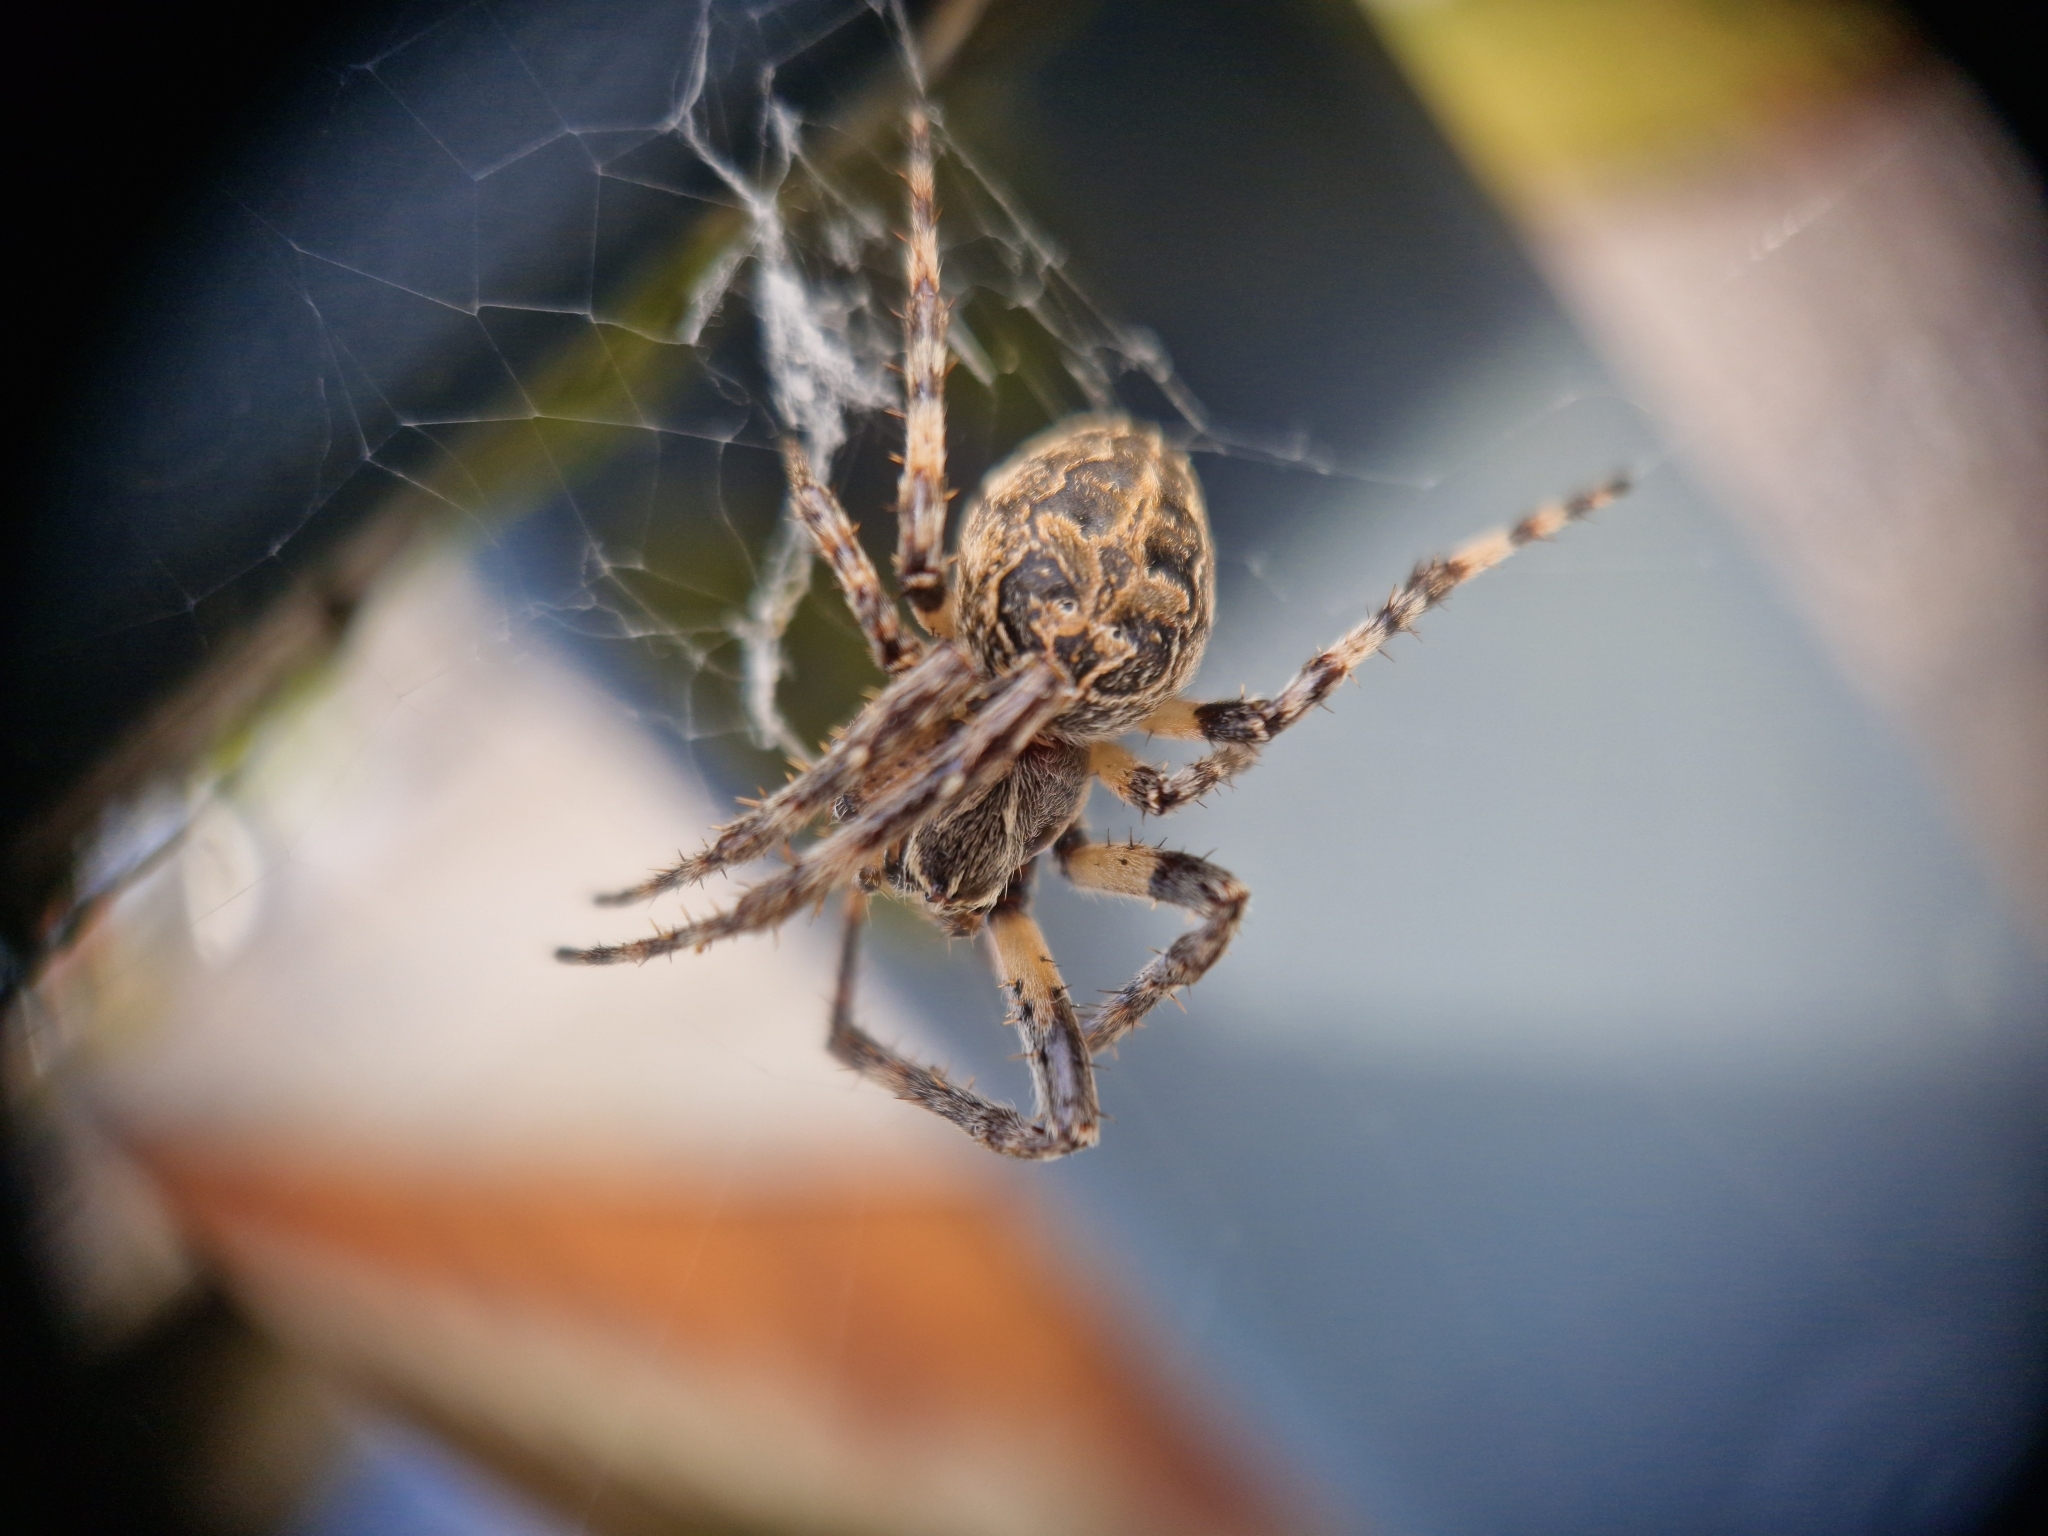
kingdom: Animalia
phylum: Arthropoda
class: Arachnida
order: Araneae
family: Araneidae
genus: Larinioides
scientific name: Larinioides sclopetarius
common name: Bridge orbweaver
